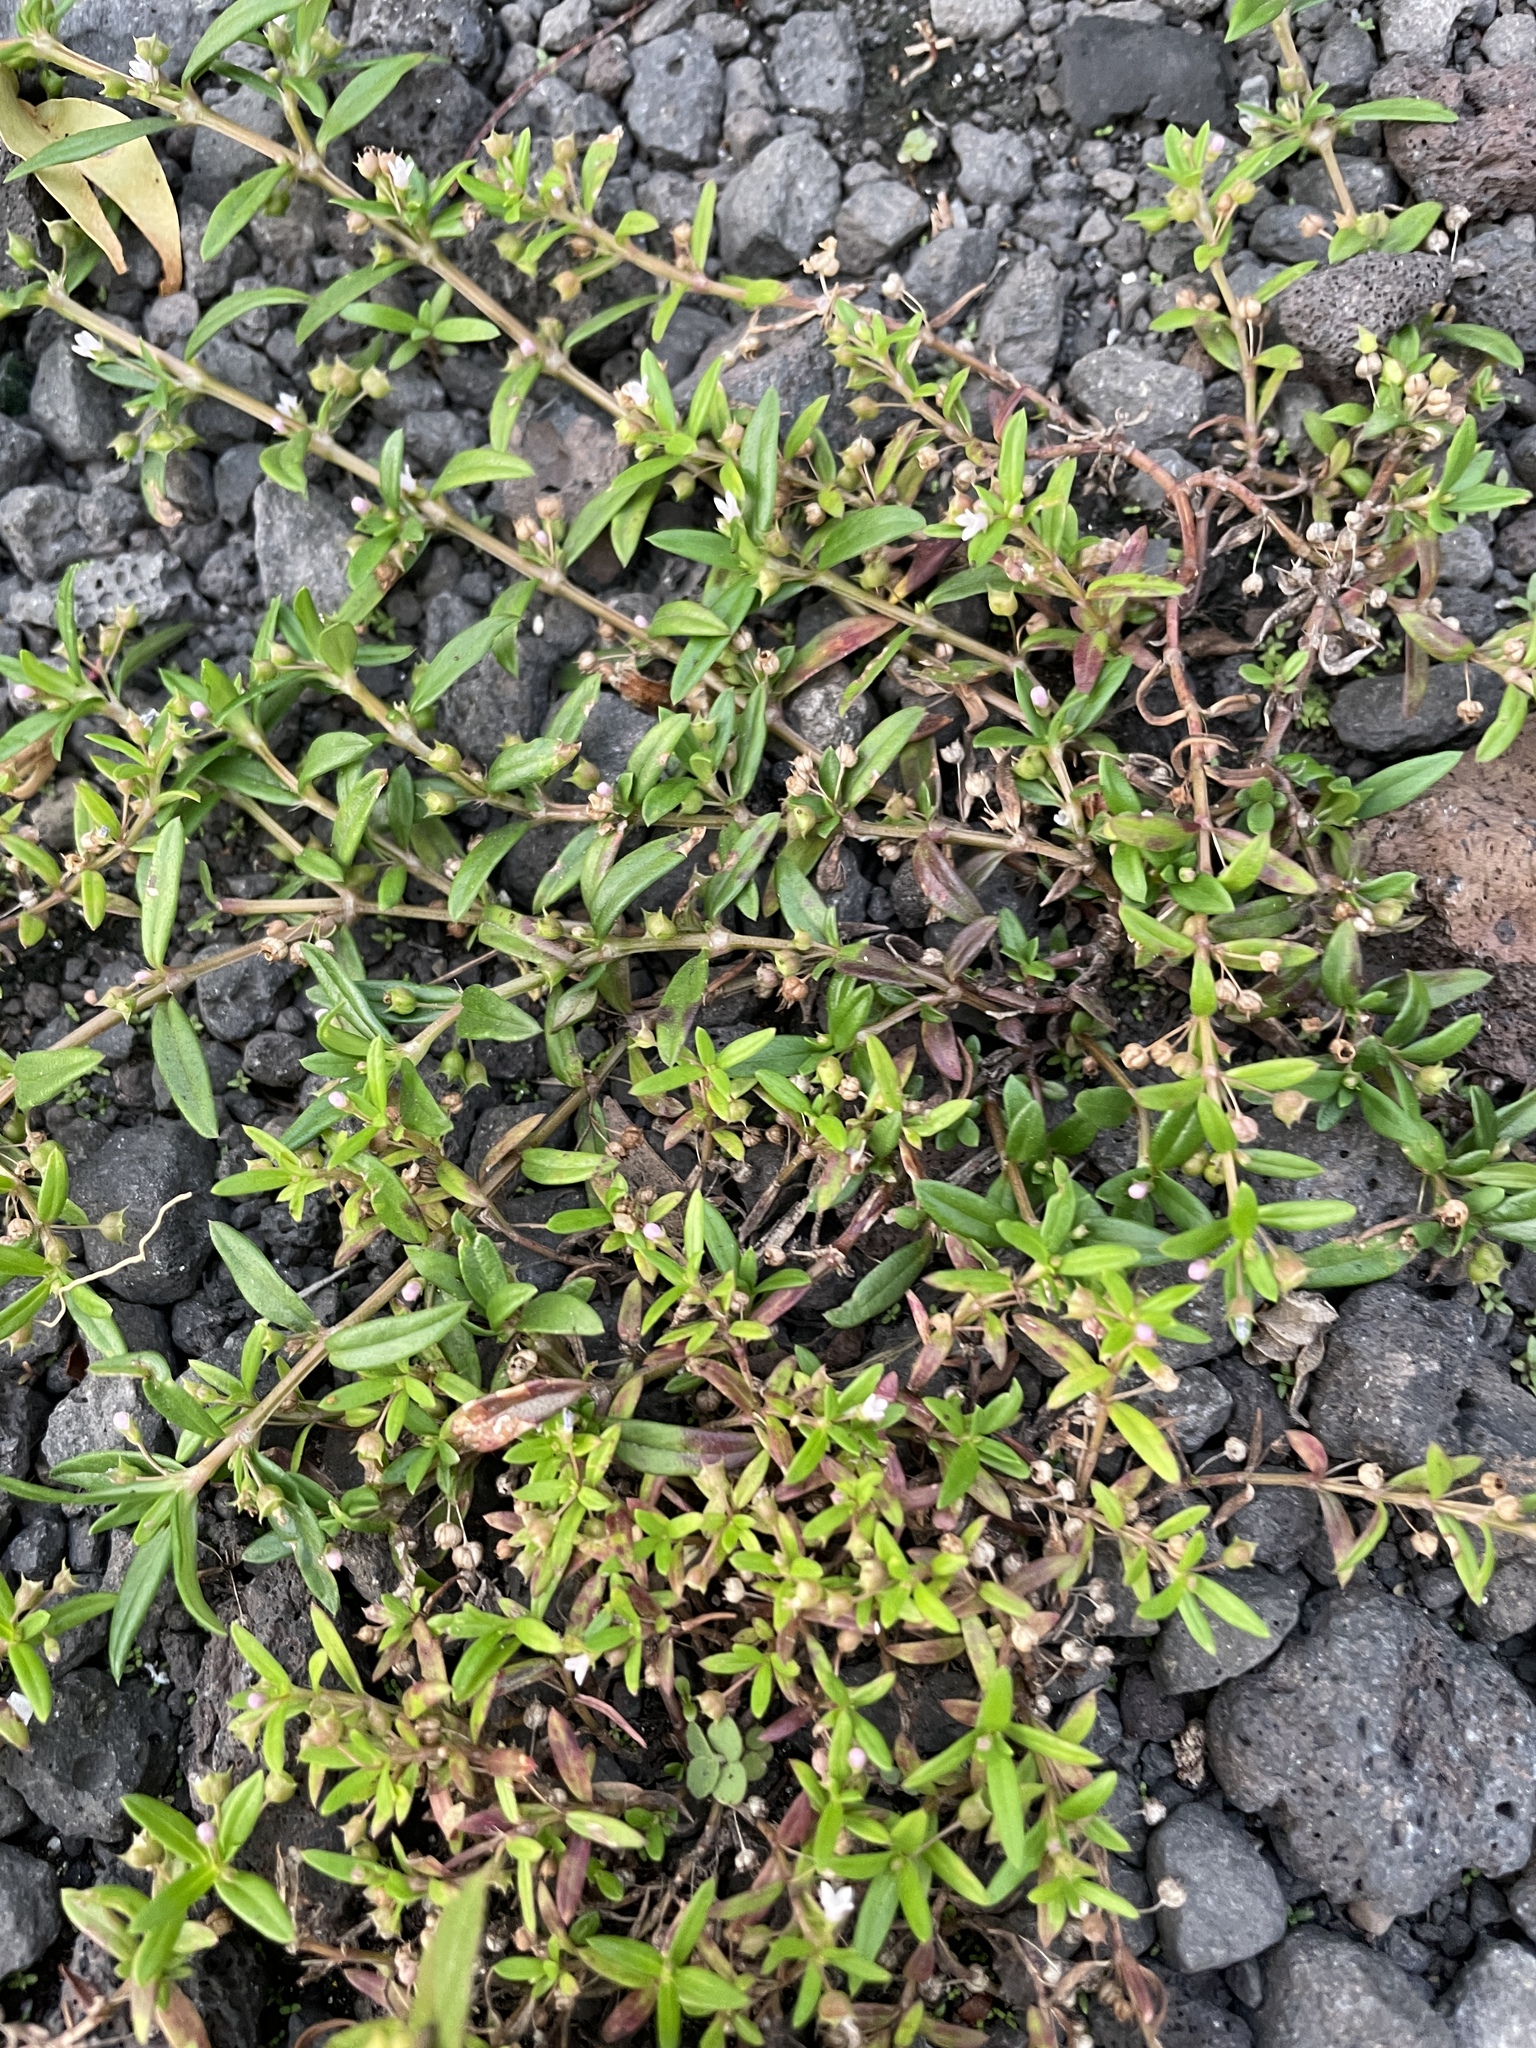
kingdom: Plantae
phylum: Tracheophyta
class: Magnoliopsida
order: Gentianales
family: Rubiaceae
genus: Oldenlandia
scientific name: Oldenlandia corymbosa
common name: Flat-top mille graines
